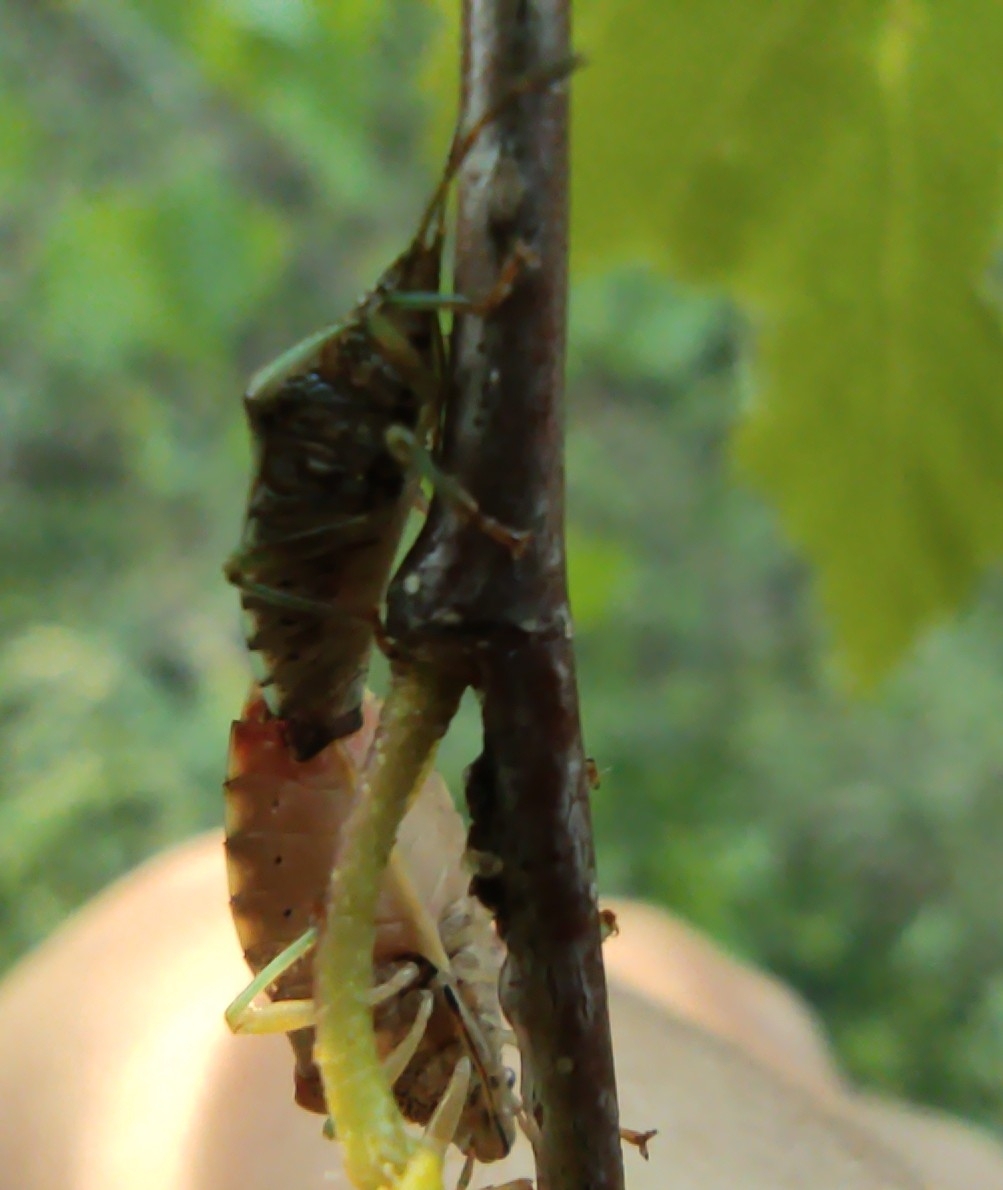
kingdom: Animalia
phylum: Arthropoda
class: Insecta
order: Hemiptera
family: Acanthosomatidae
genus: Elasmucha
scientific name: Elasmucha grisea
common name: Parent bug
